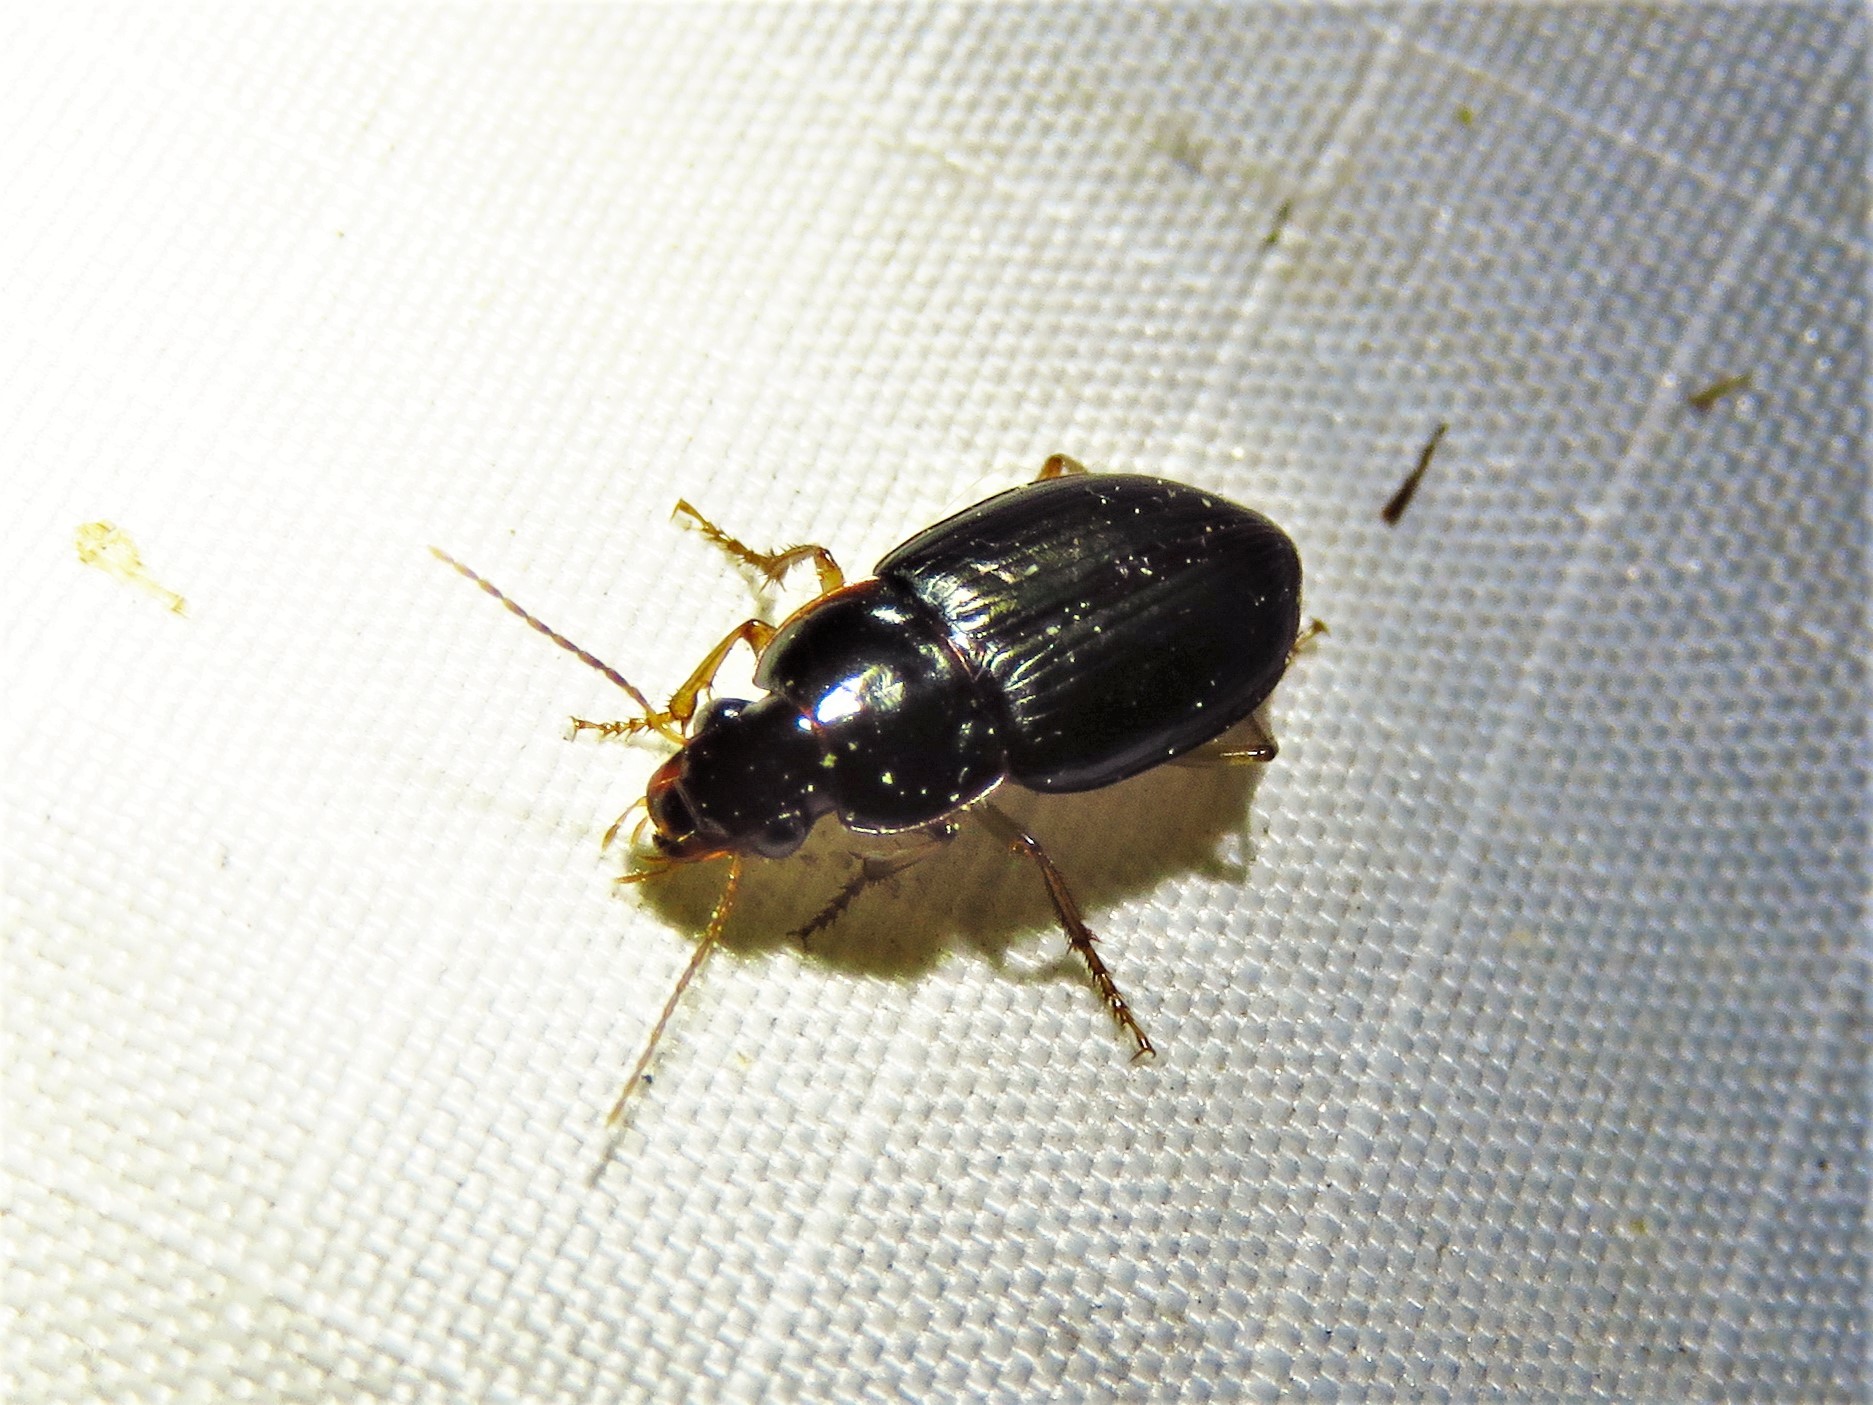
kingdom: Animalia
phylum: Arthropoda
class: Insecta
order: Coleoptera
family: Carabidae
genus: Notiobia
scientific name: Notiobia terminata
